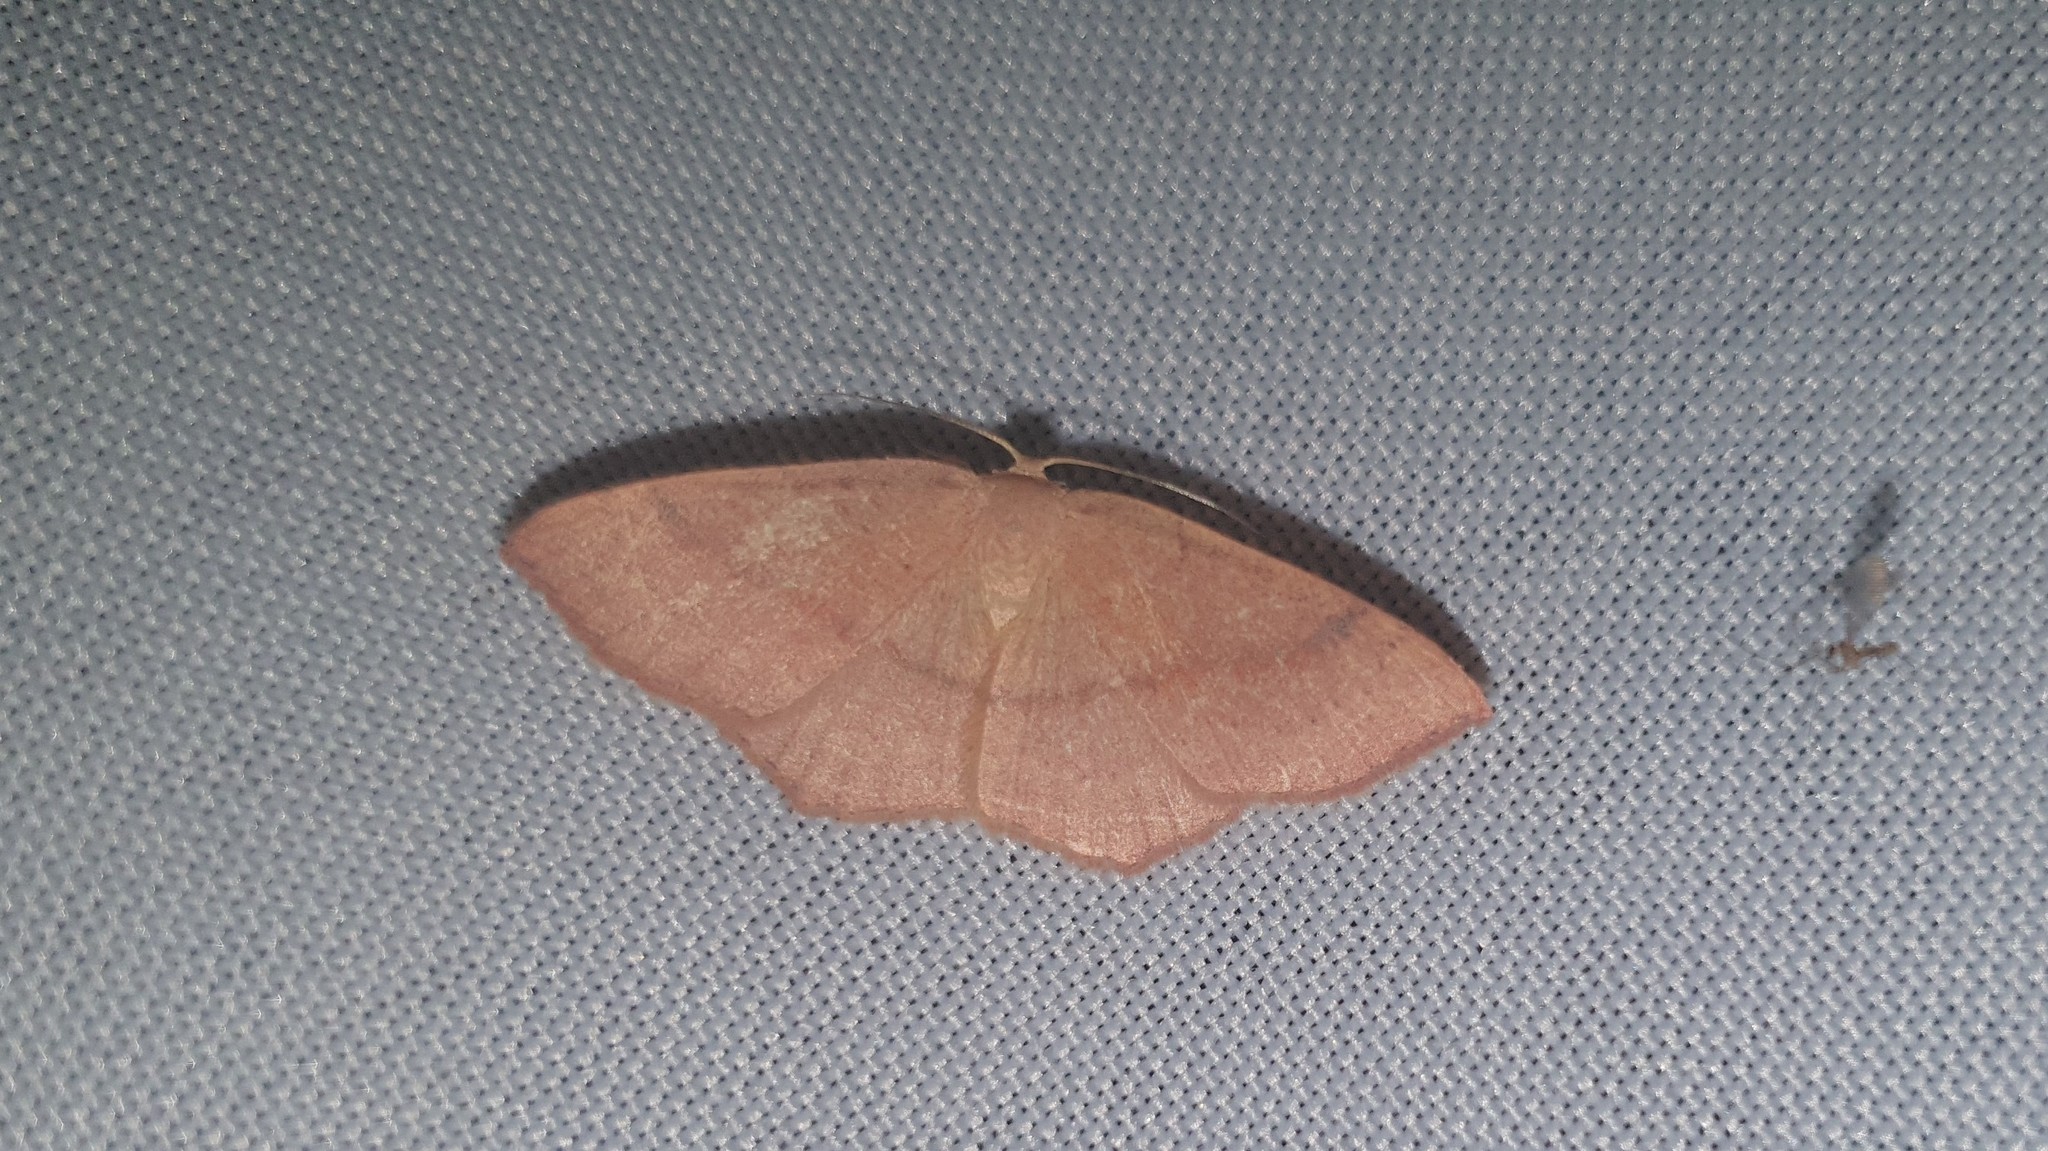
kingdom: Animalia
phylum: Arthropoda
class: Insecta
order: Lepidoptera
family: Geometridae
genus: Cyclophora
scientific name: Cyclophora linearia
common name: Clay triple-lines
